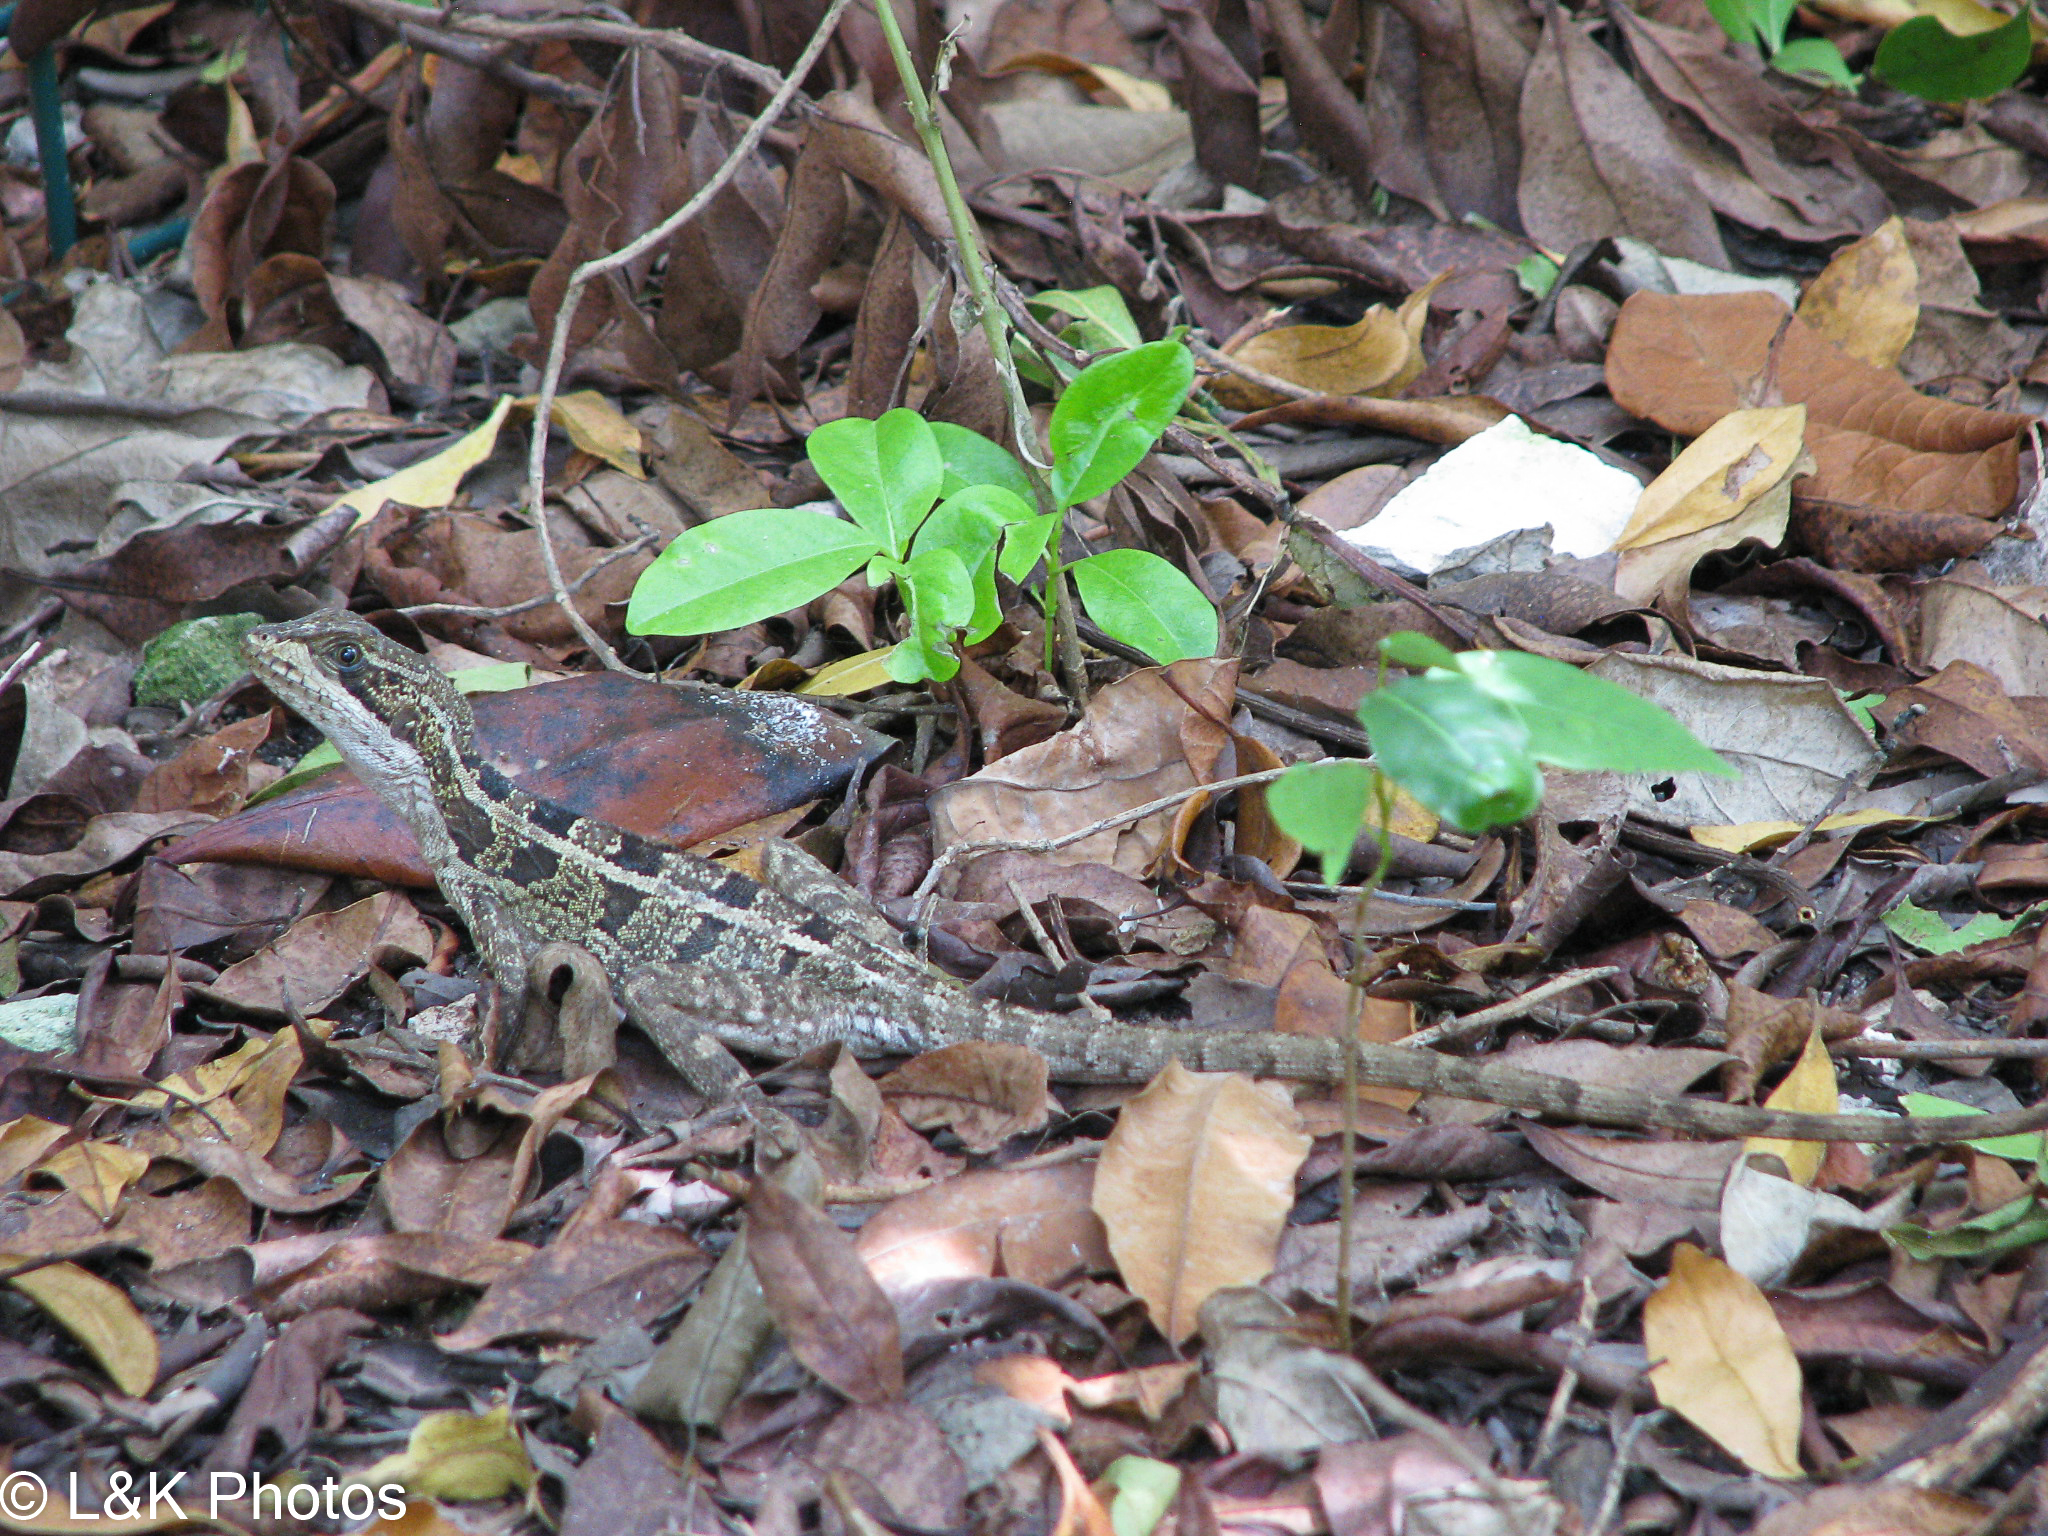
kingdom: Animalia
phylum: Chordata
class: Squamata
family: Corytophanidae
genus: Basiliscus
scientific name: Basiliscus vittatus
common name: Brown basilisk
